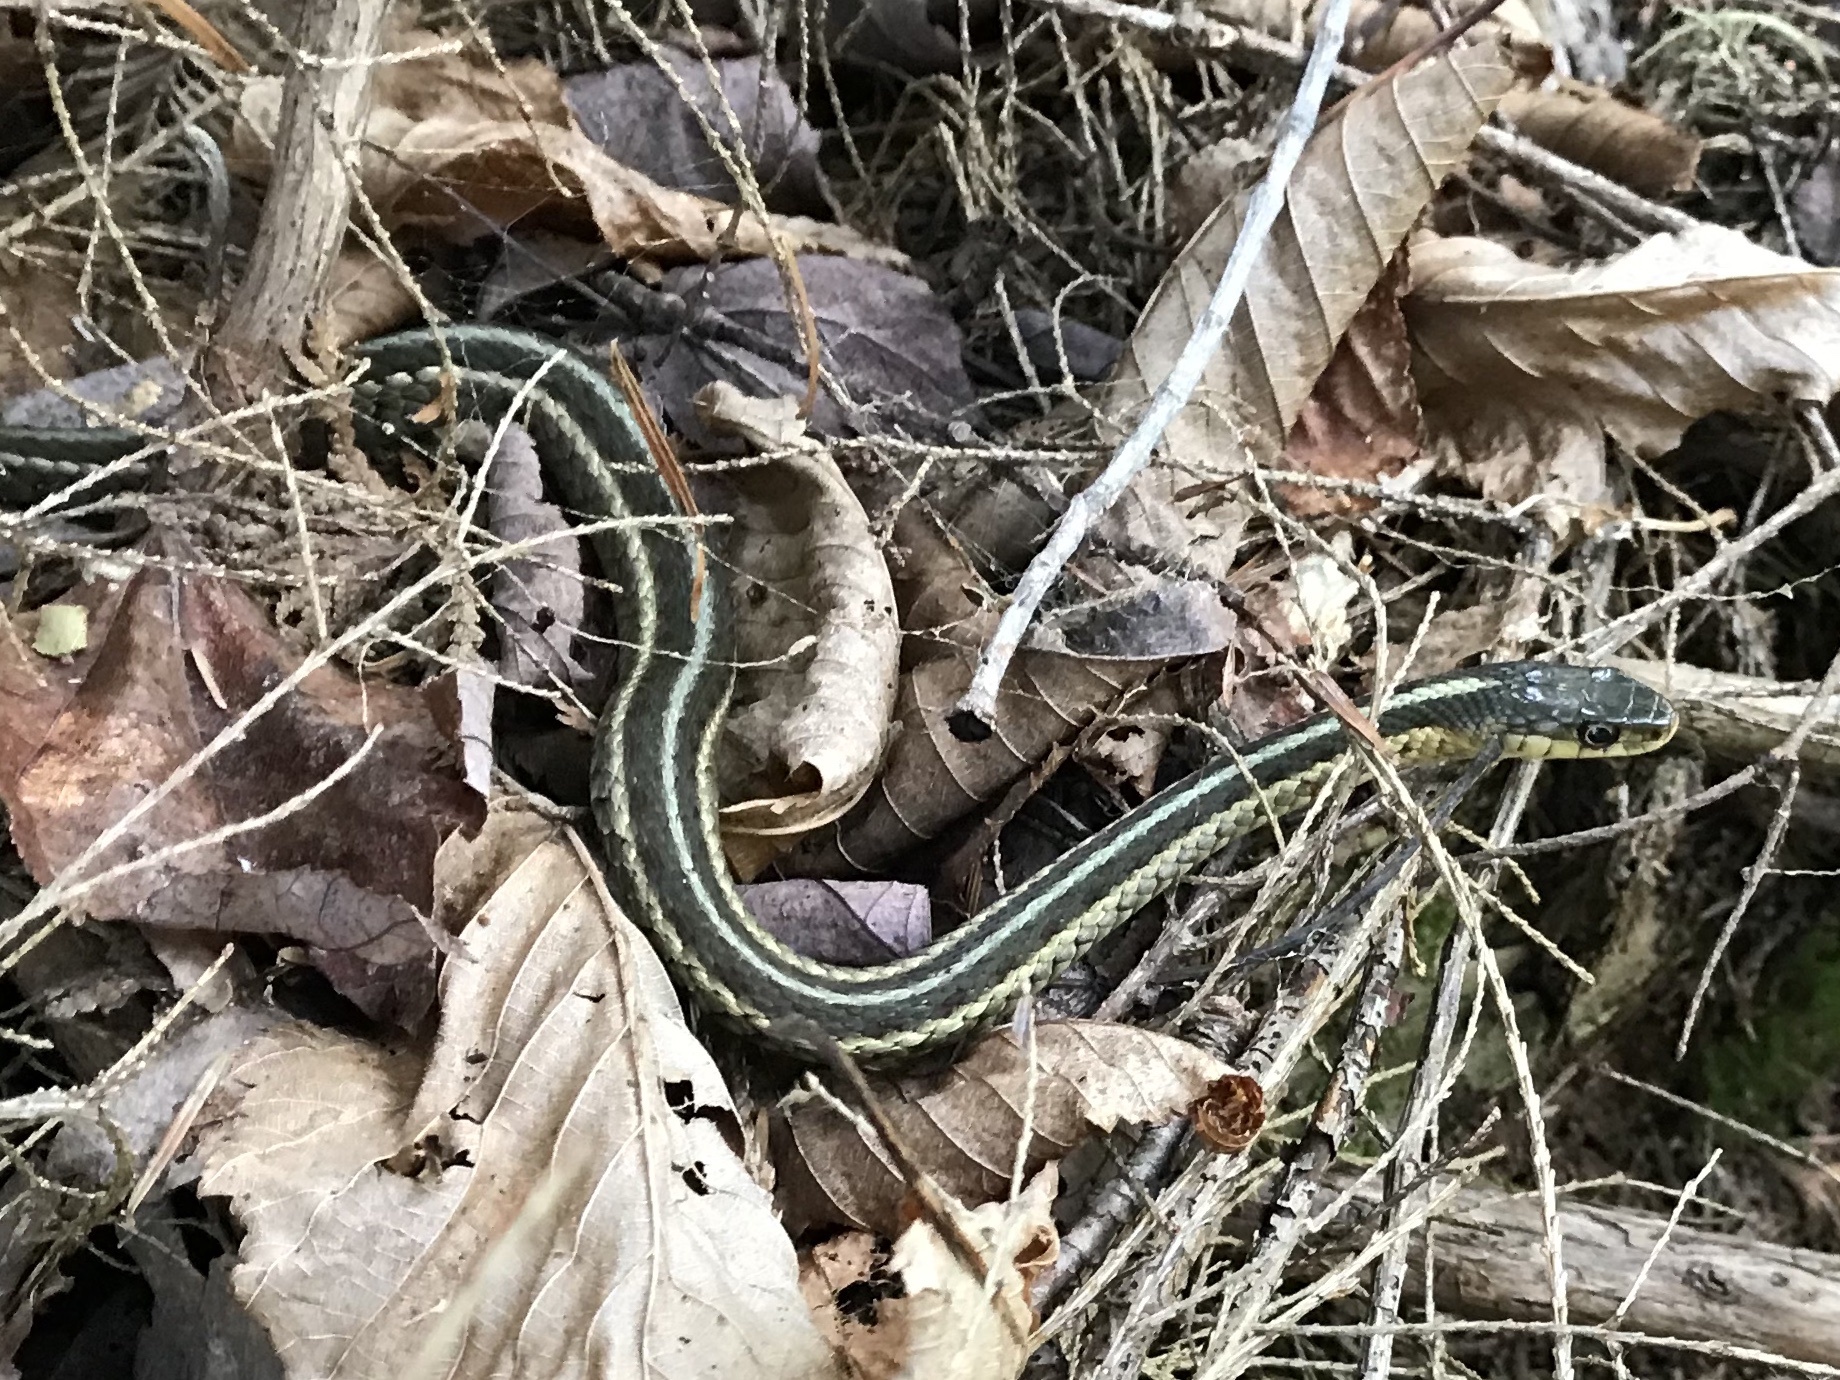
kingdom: Animalia
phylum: Chordata
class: Squamata
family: Colubridae
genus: Thamnophis
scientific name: Thamnophis sirtalis
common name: Common garter snake
